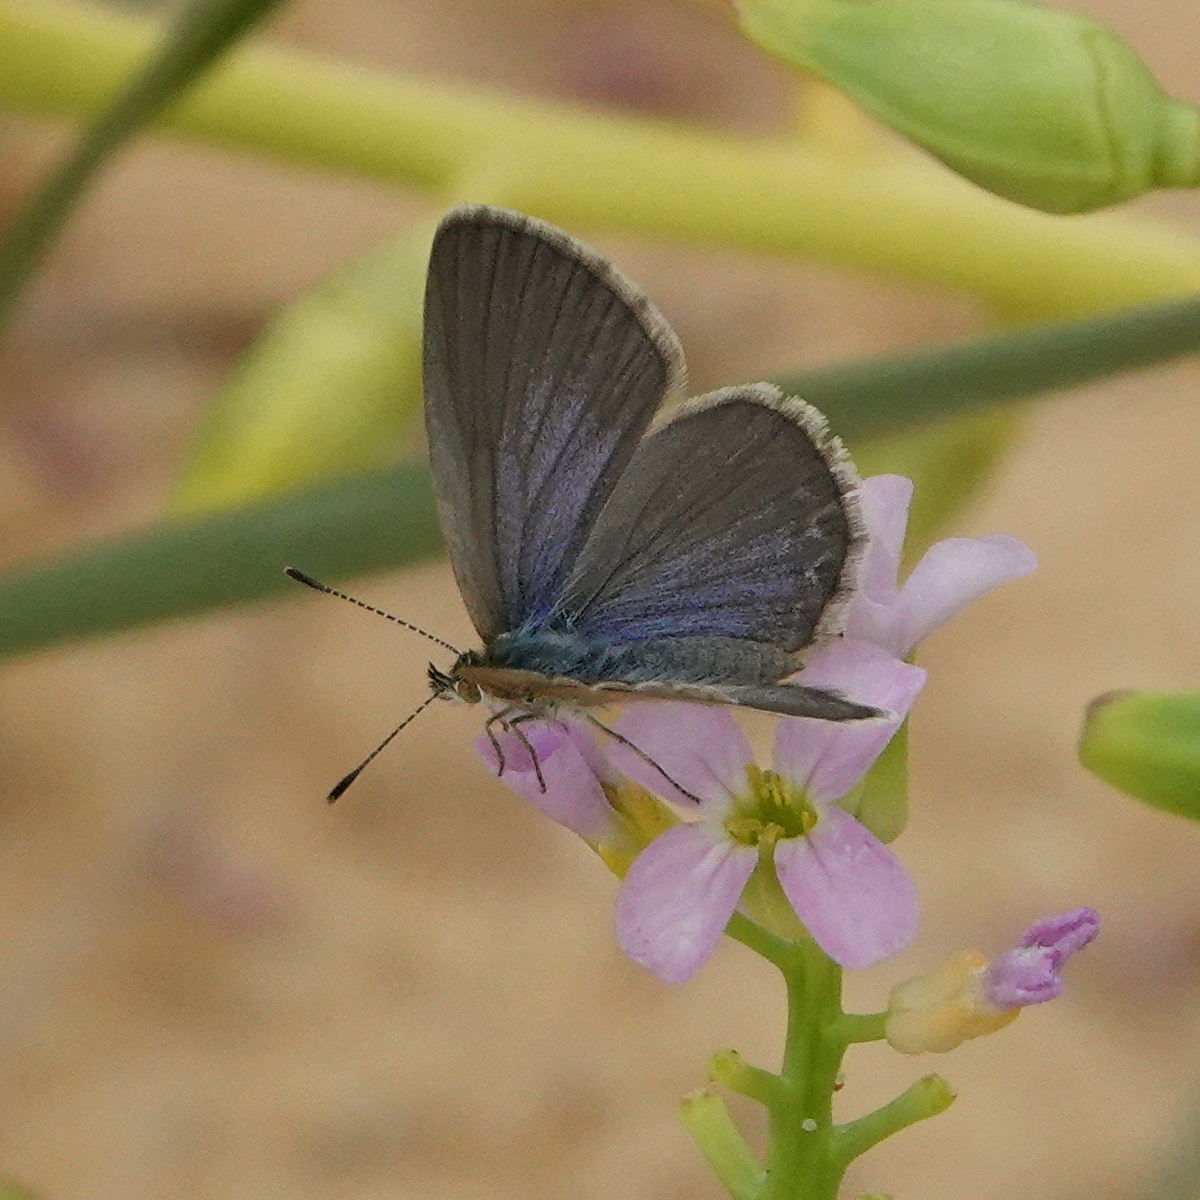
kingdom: Animalia
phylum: Arthropoda
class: Insecta
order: Lepidoptera
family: Lycaenidae
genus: Zizina
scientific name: Zizina otis
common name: Lesser grass blue
